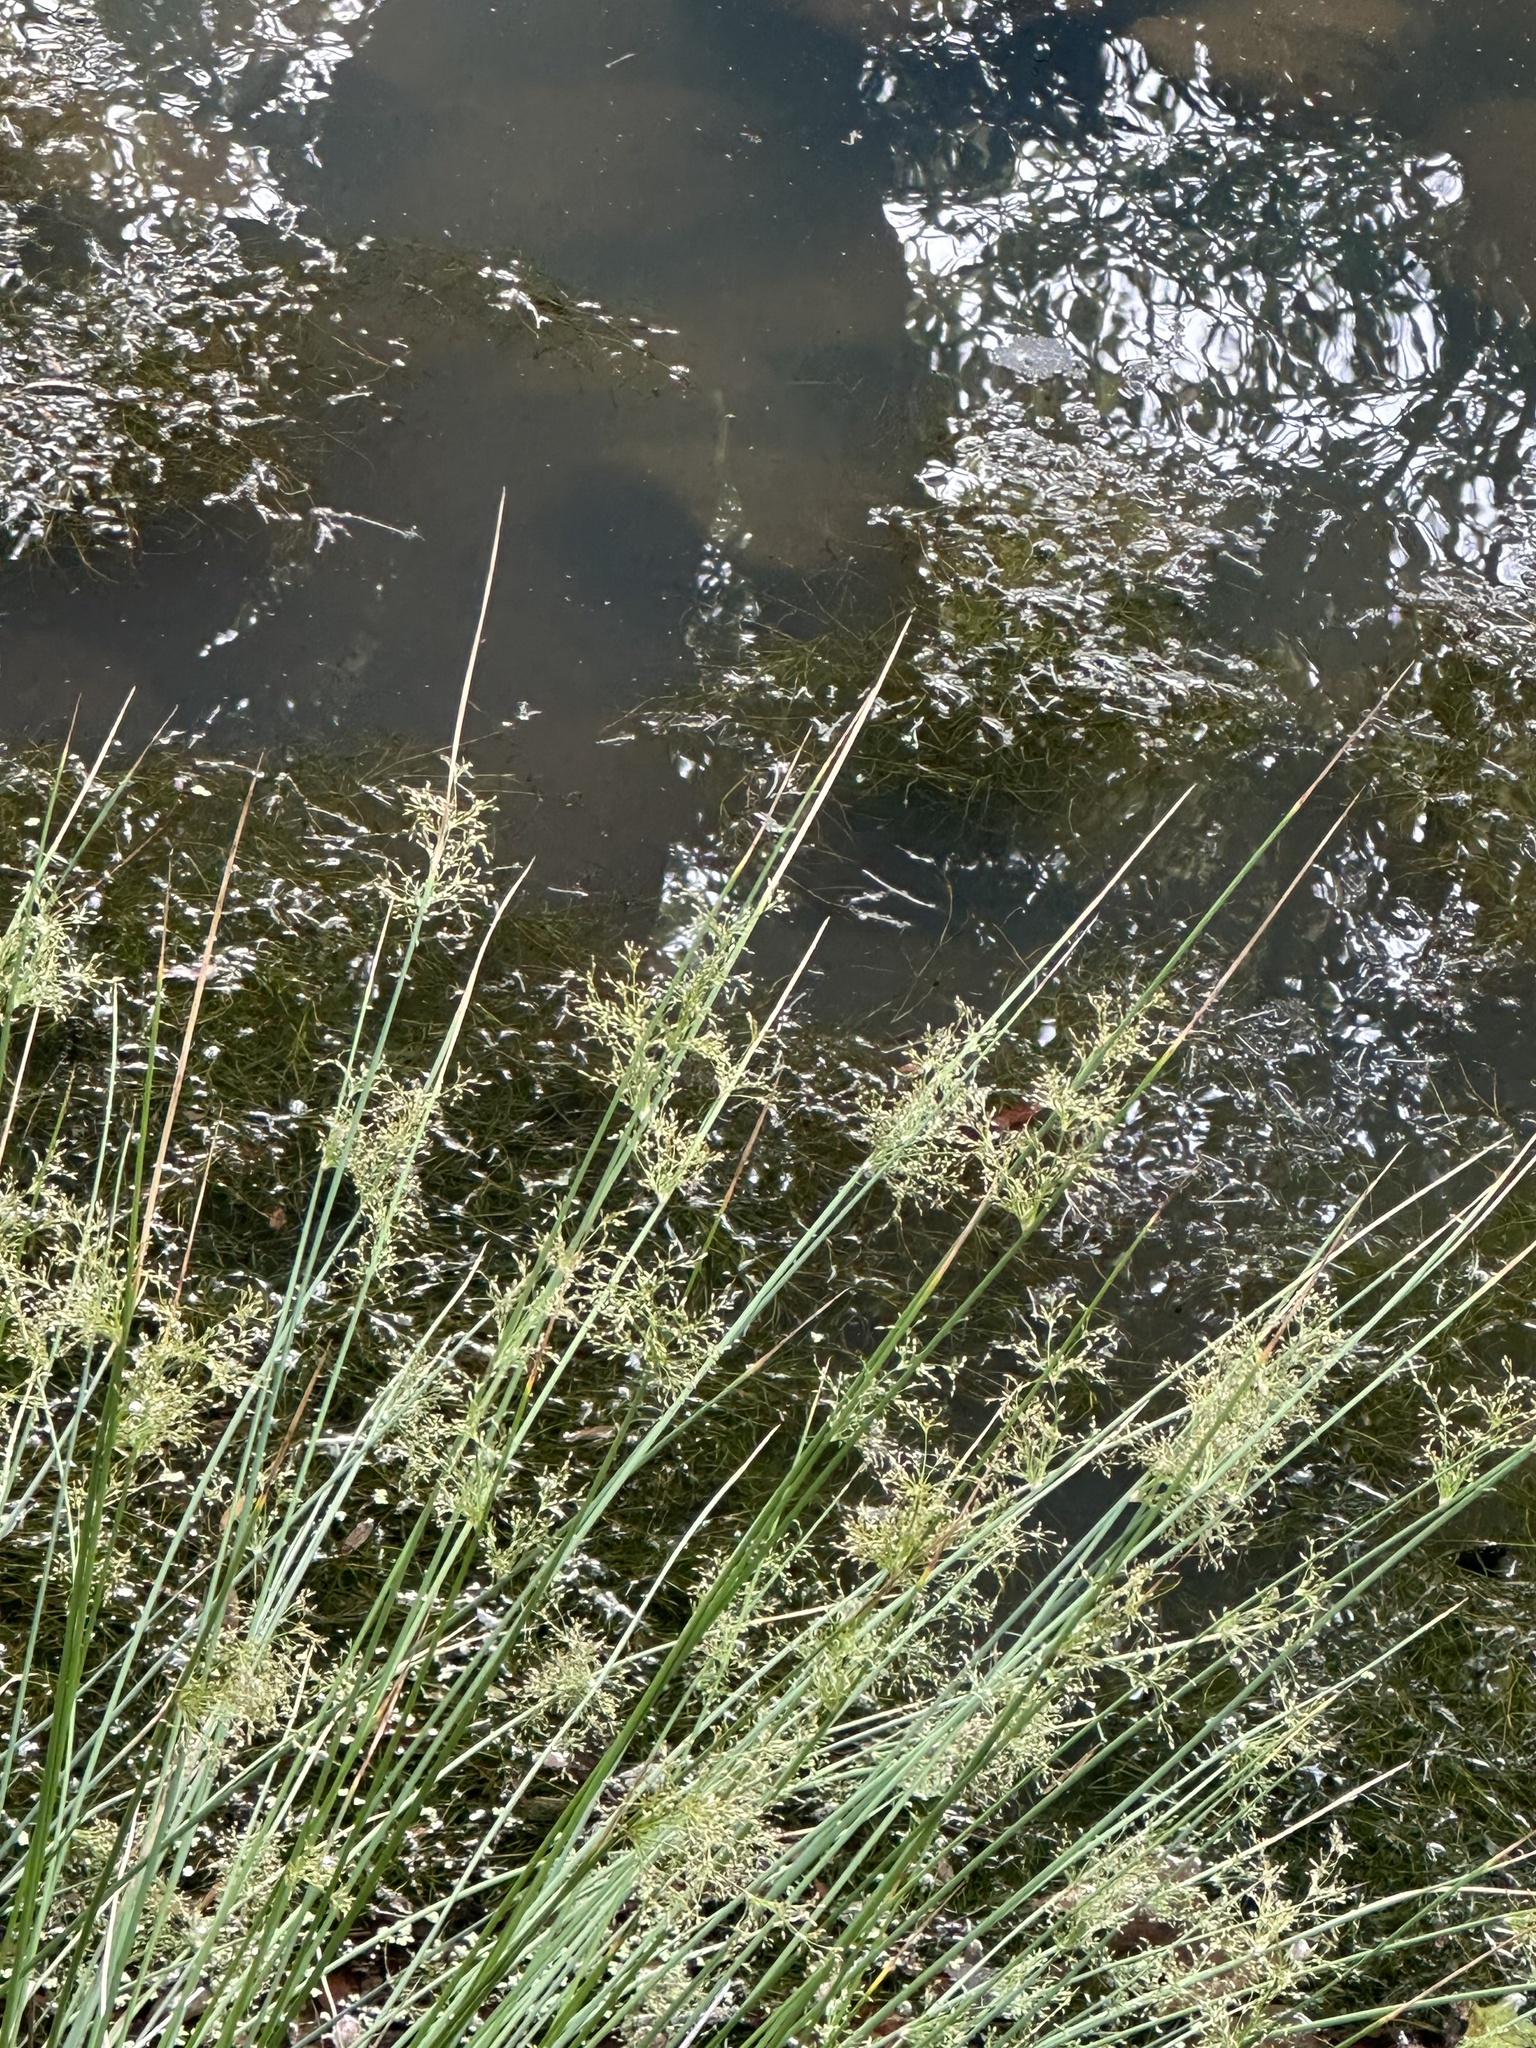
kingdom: Plantae
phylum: Tracheophyta
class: Liliopsida
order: Poales
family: Juncaceae
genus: Juncus
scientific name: Juncus effusus
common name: Soft rush
